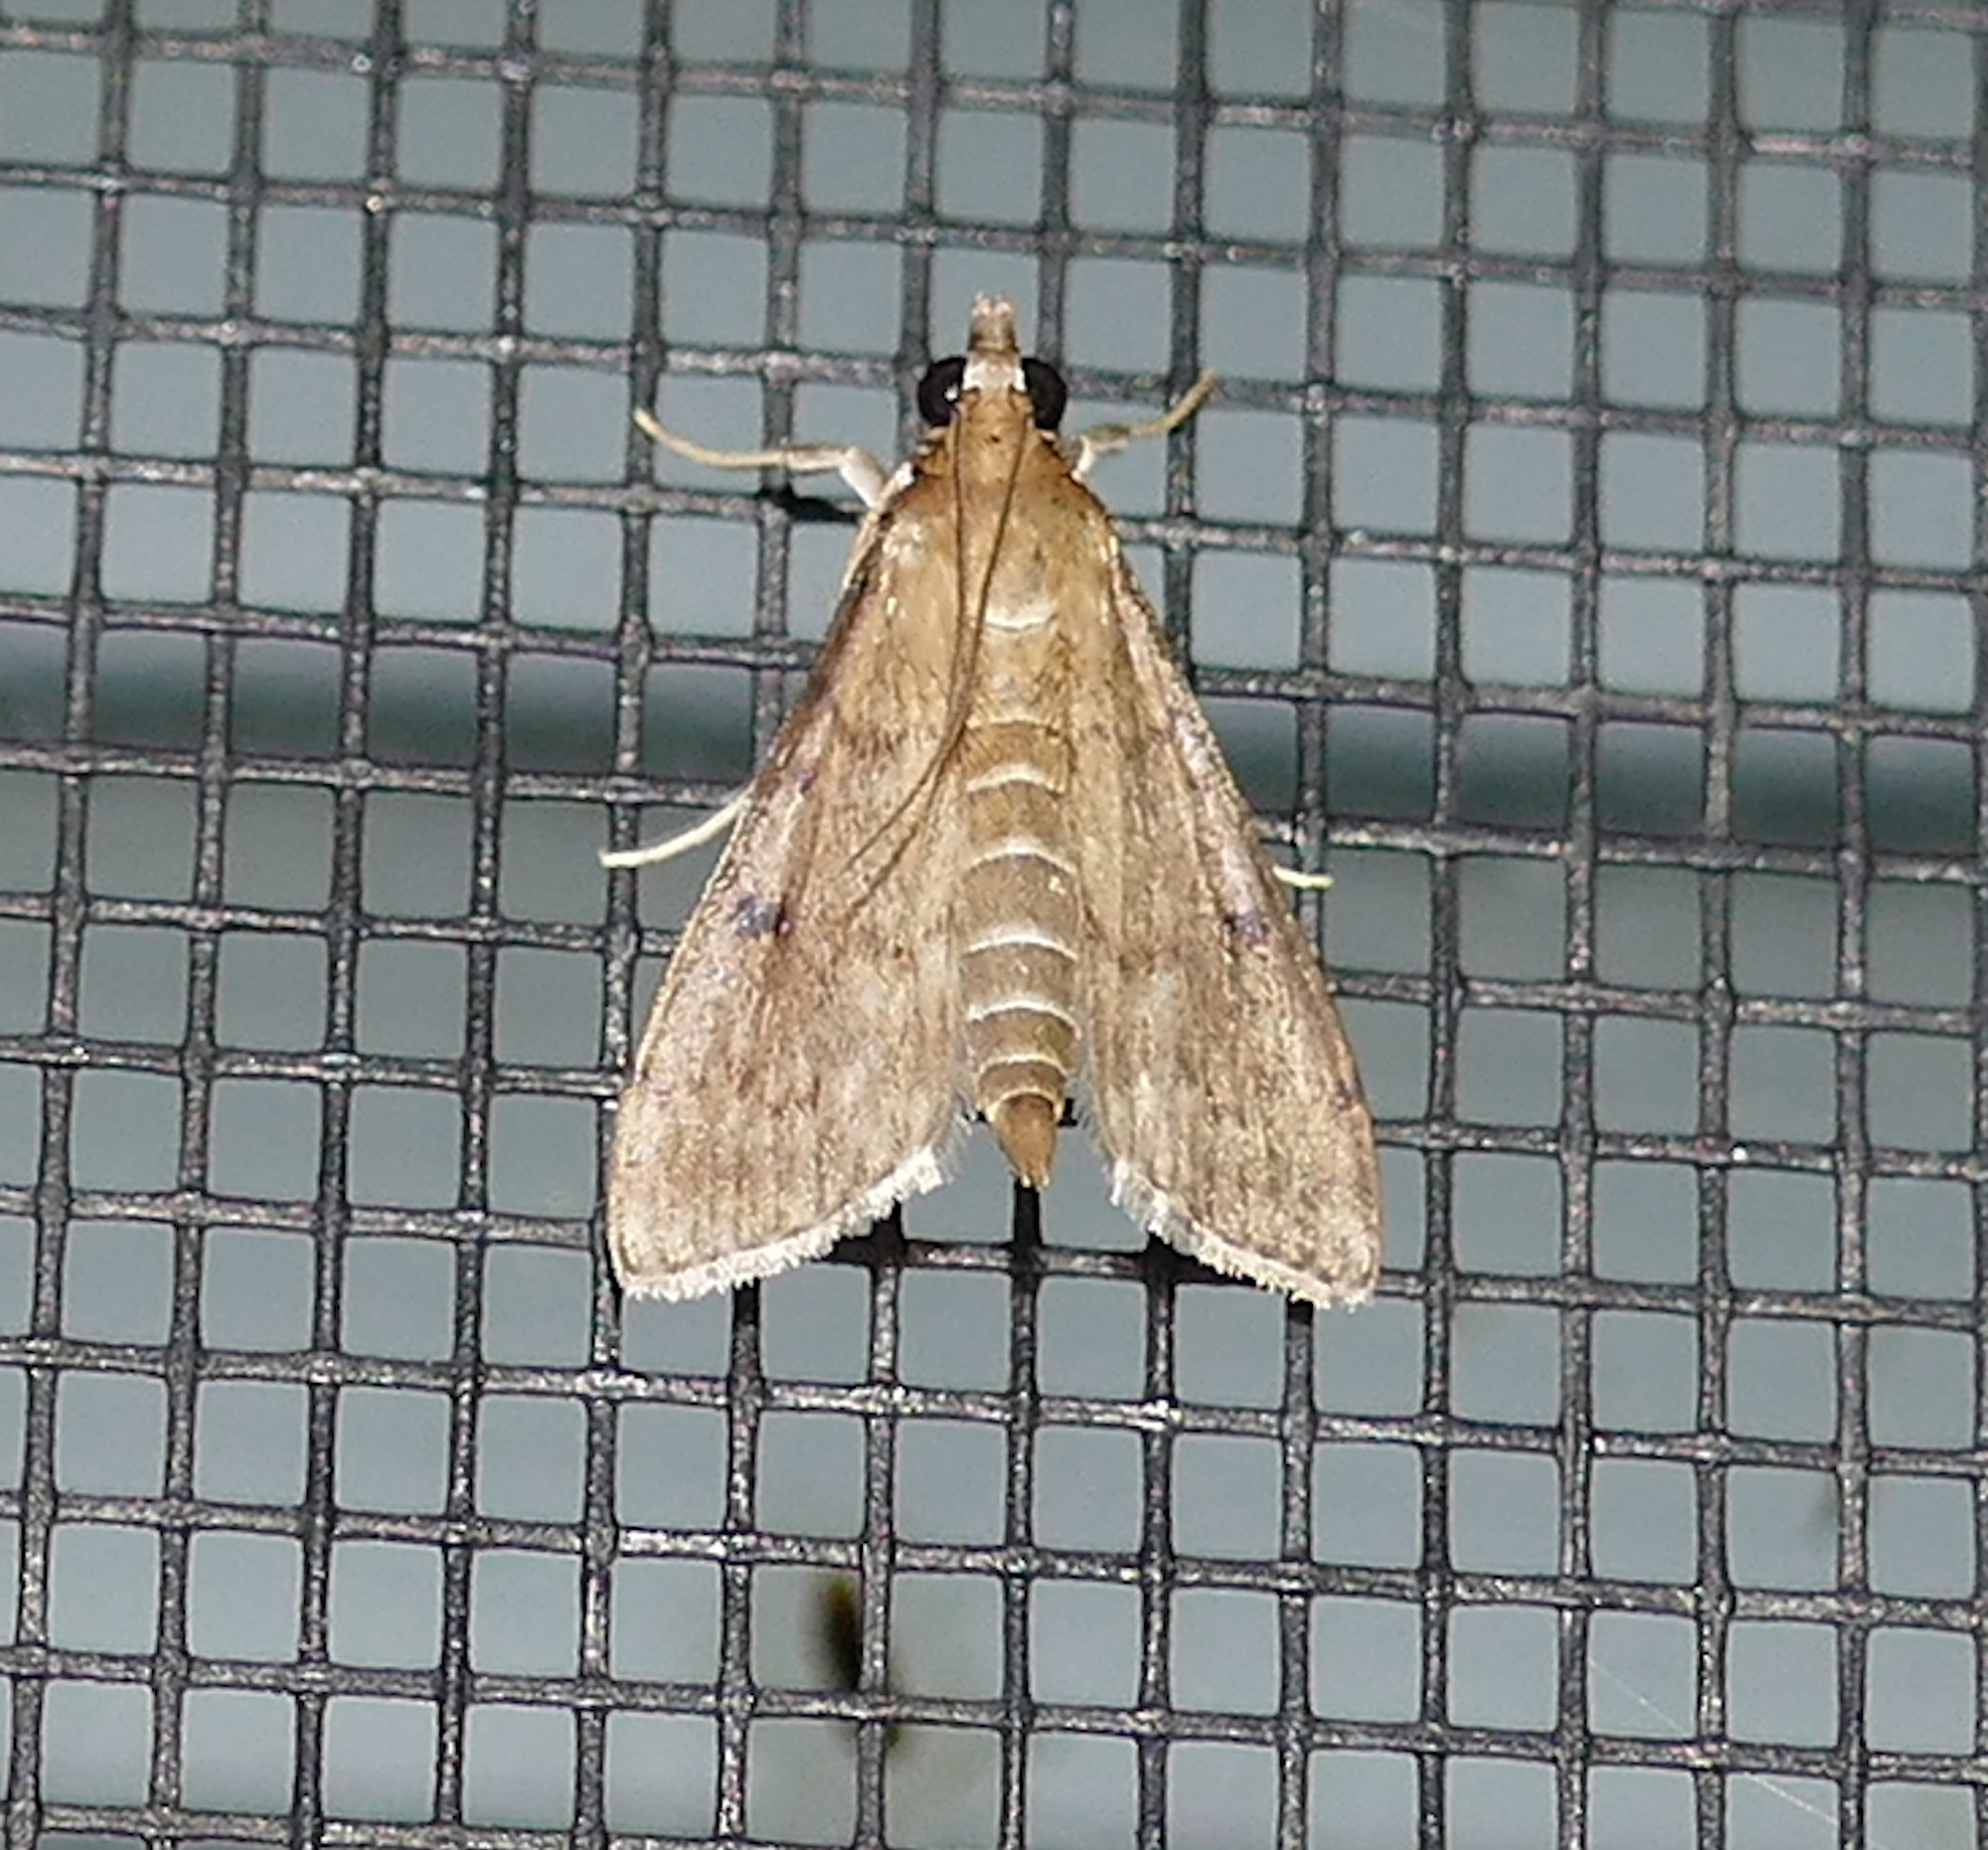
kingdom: Animalia
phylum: Arthropoda
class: Insecta
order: Lepidoptera
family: Crambidae
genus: Herpetogramma
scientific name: Herpetogramma phaeopteralis
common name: Dusky herpetogramma moth
